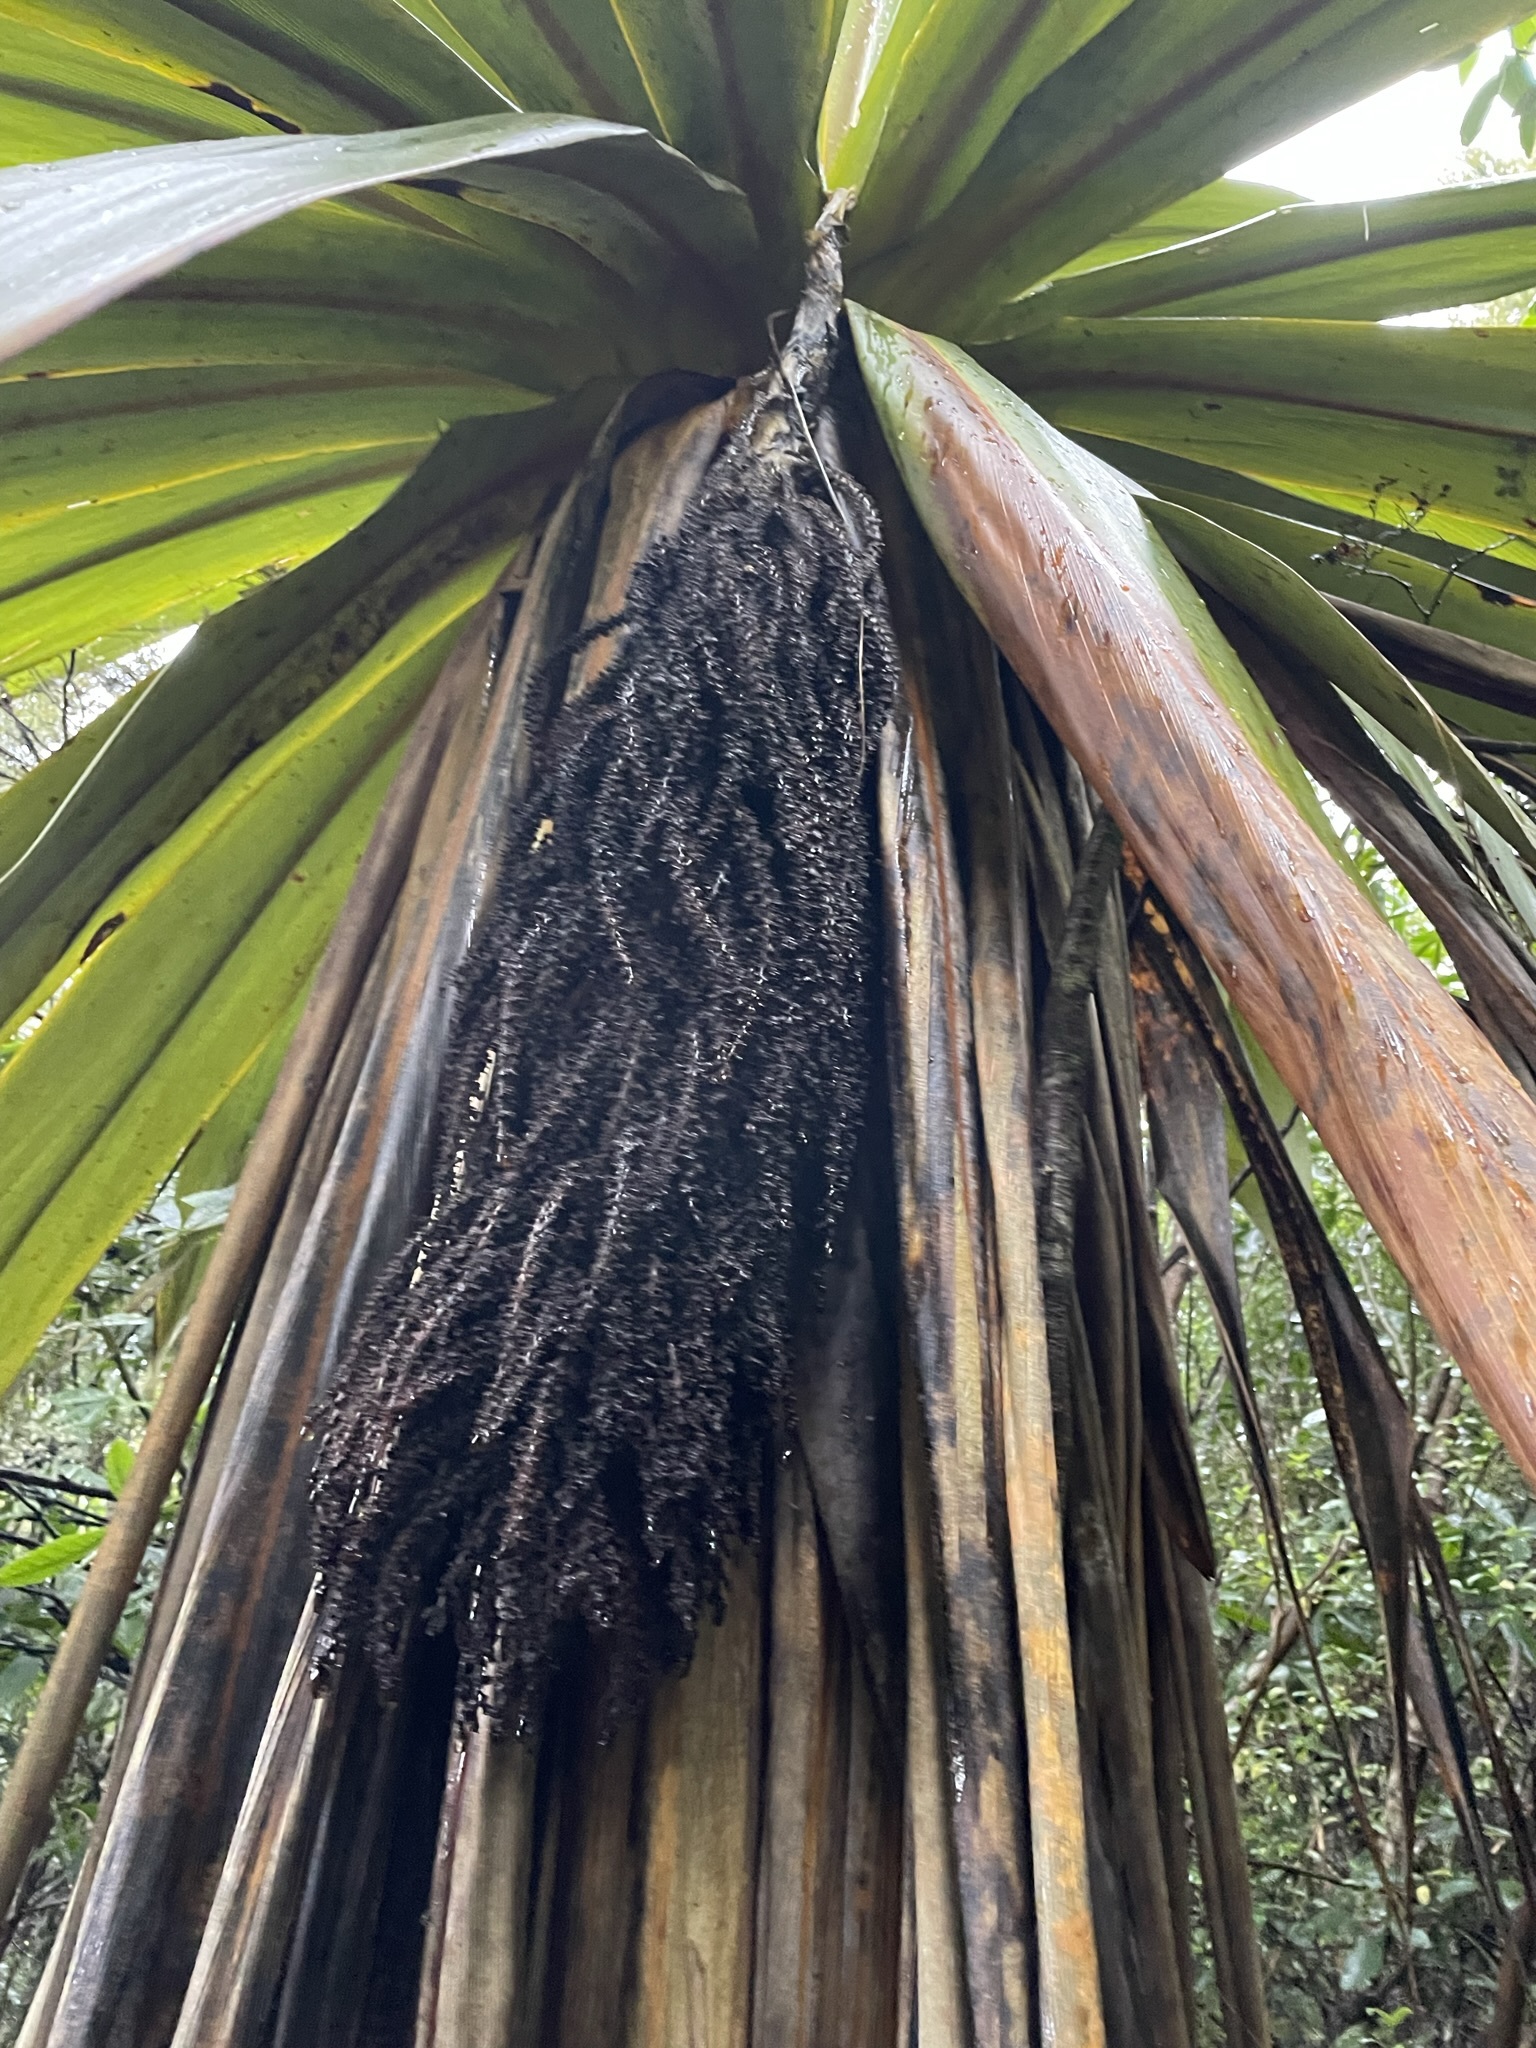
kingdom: Plantae
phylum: Tracheophyta
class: Liliopsida
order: Asparagales
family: Asparagaceae
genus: Cordyline
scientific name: Cordyline indivisa
